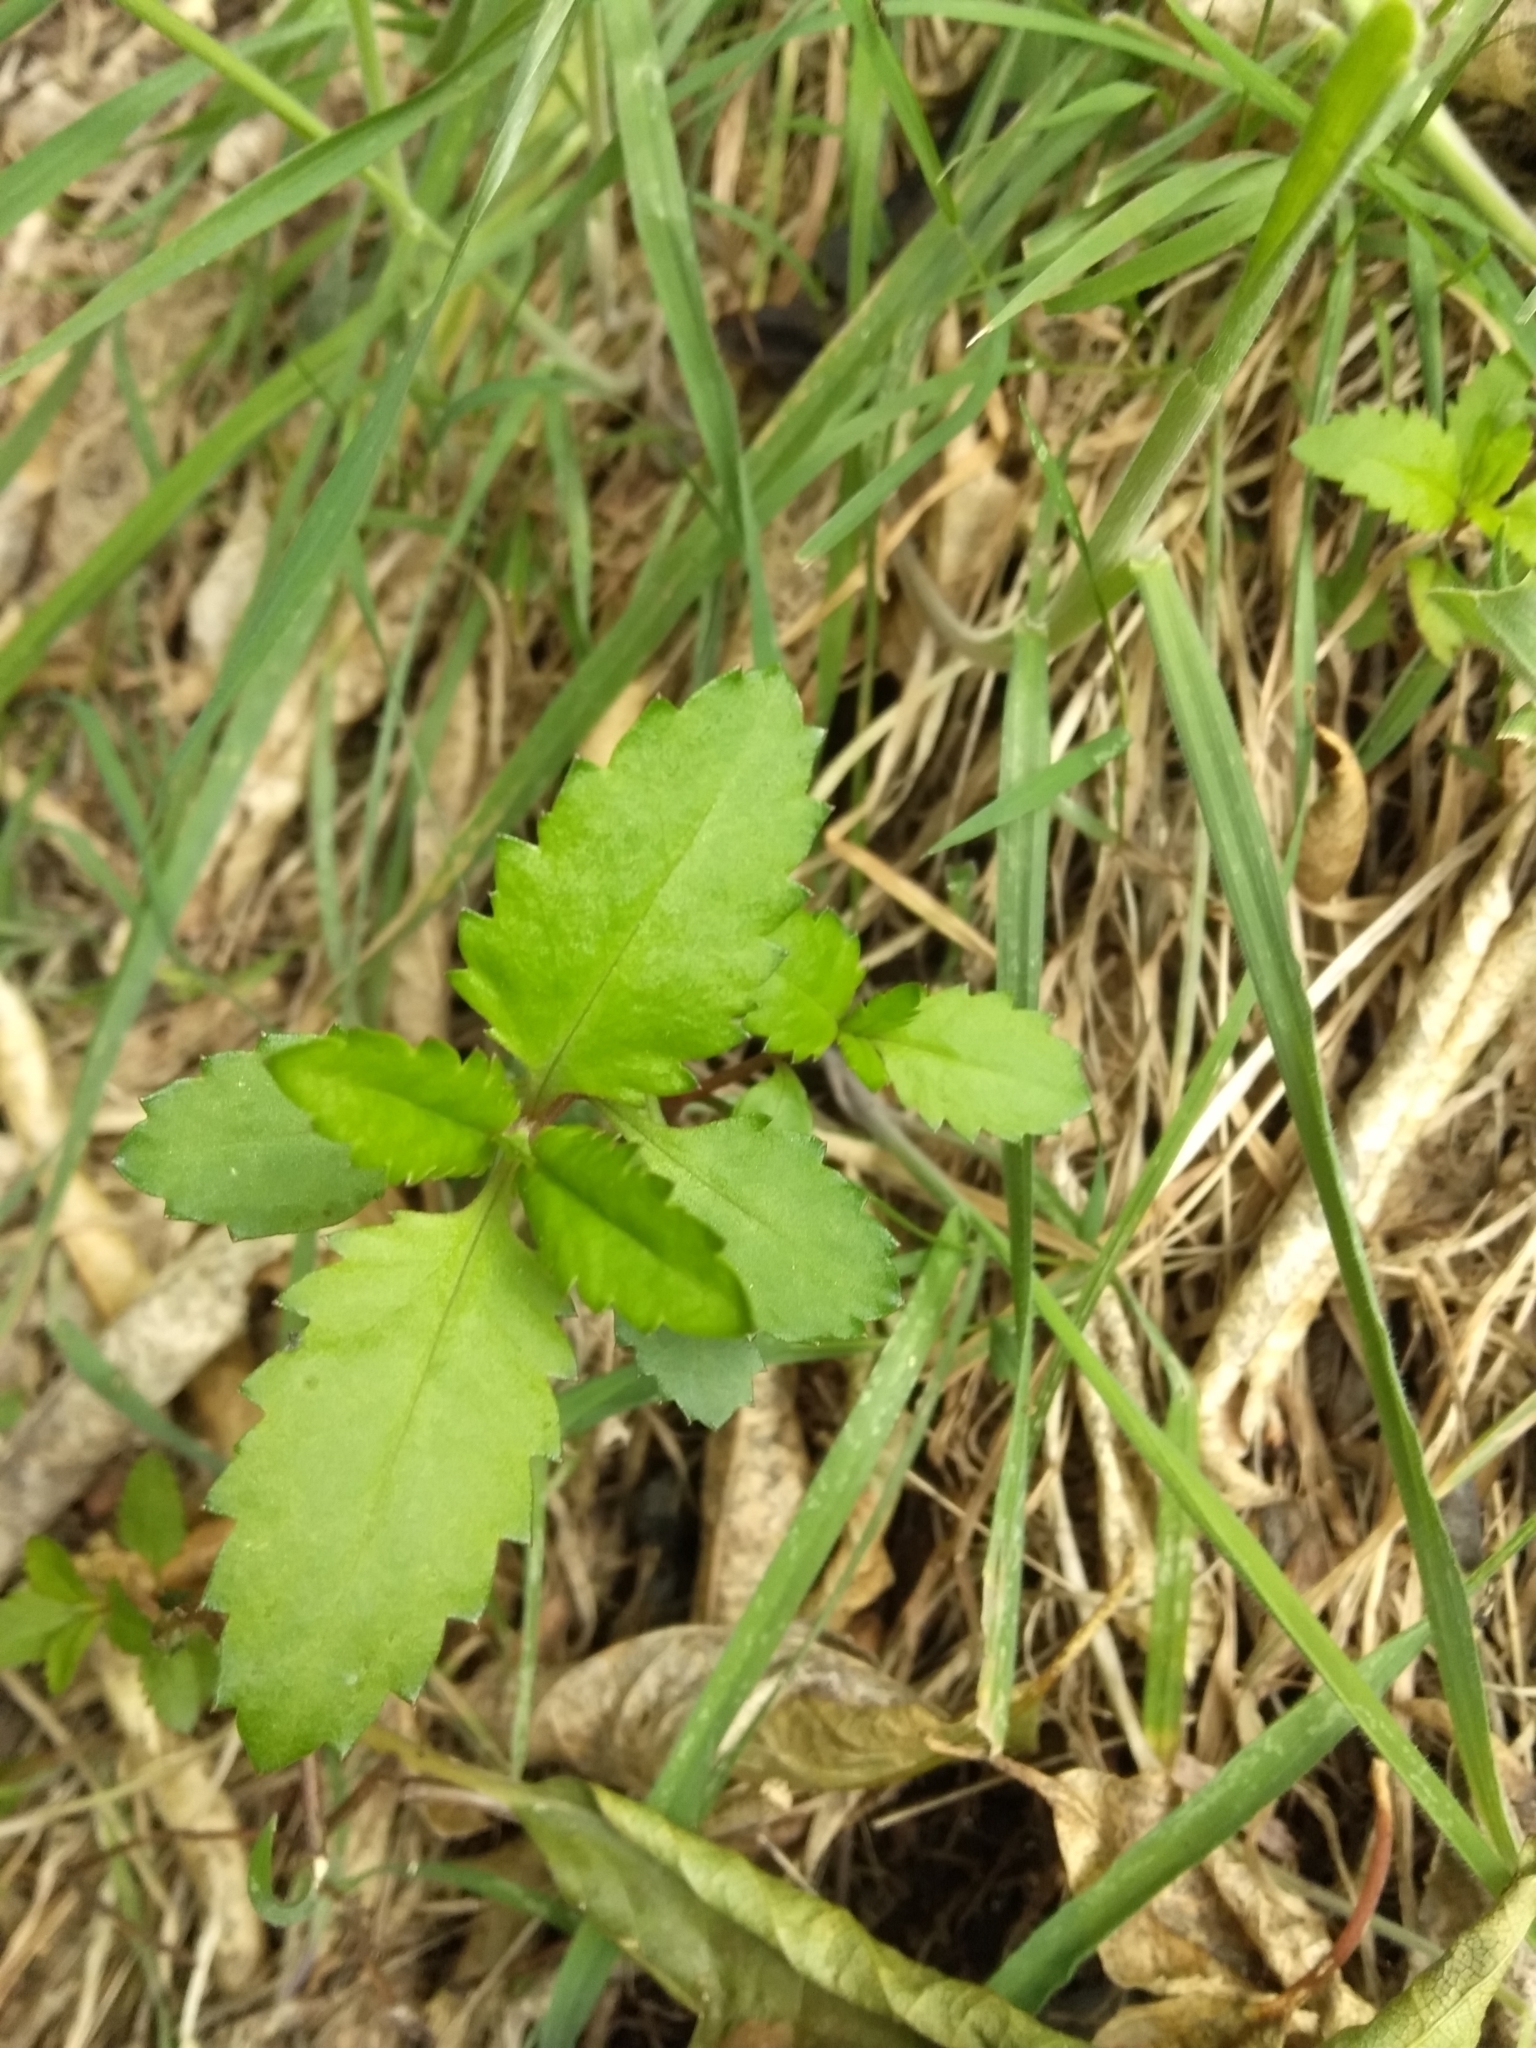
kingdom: Plantae
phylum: Tracheophyta
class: Magnoliopsida
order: Saxifragales
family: Haloragaceae
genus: Haloragis
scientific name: Haloragis erecta
